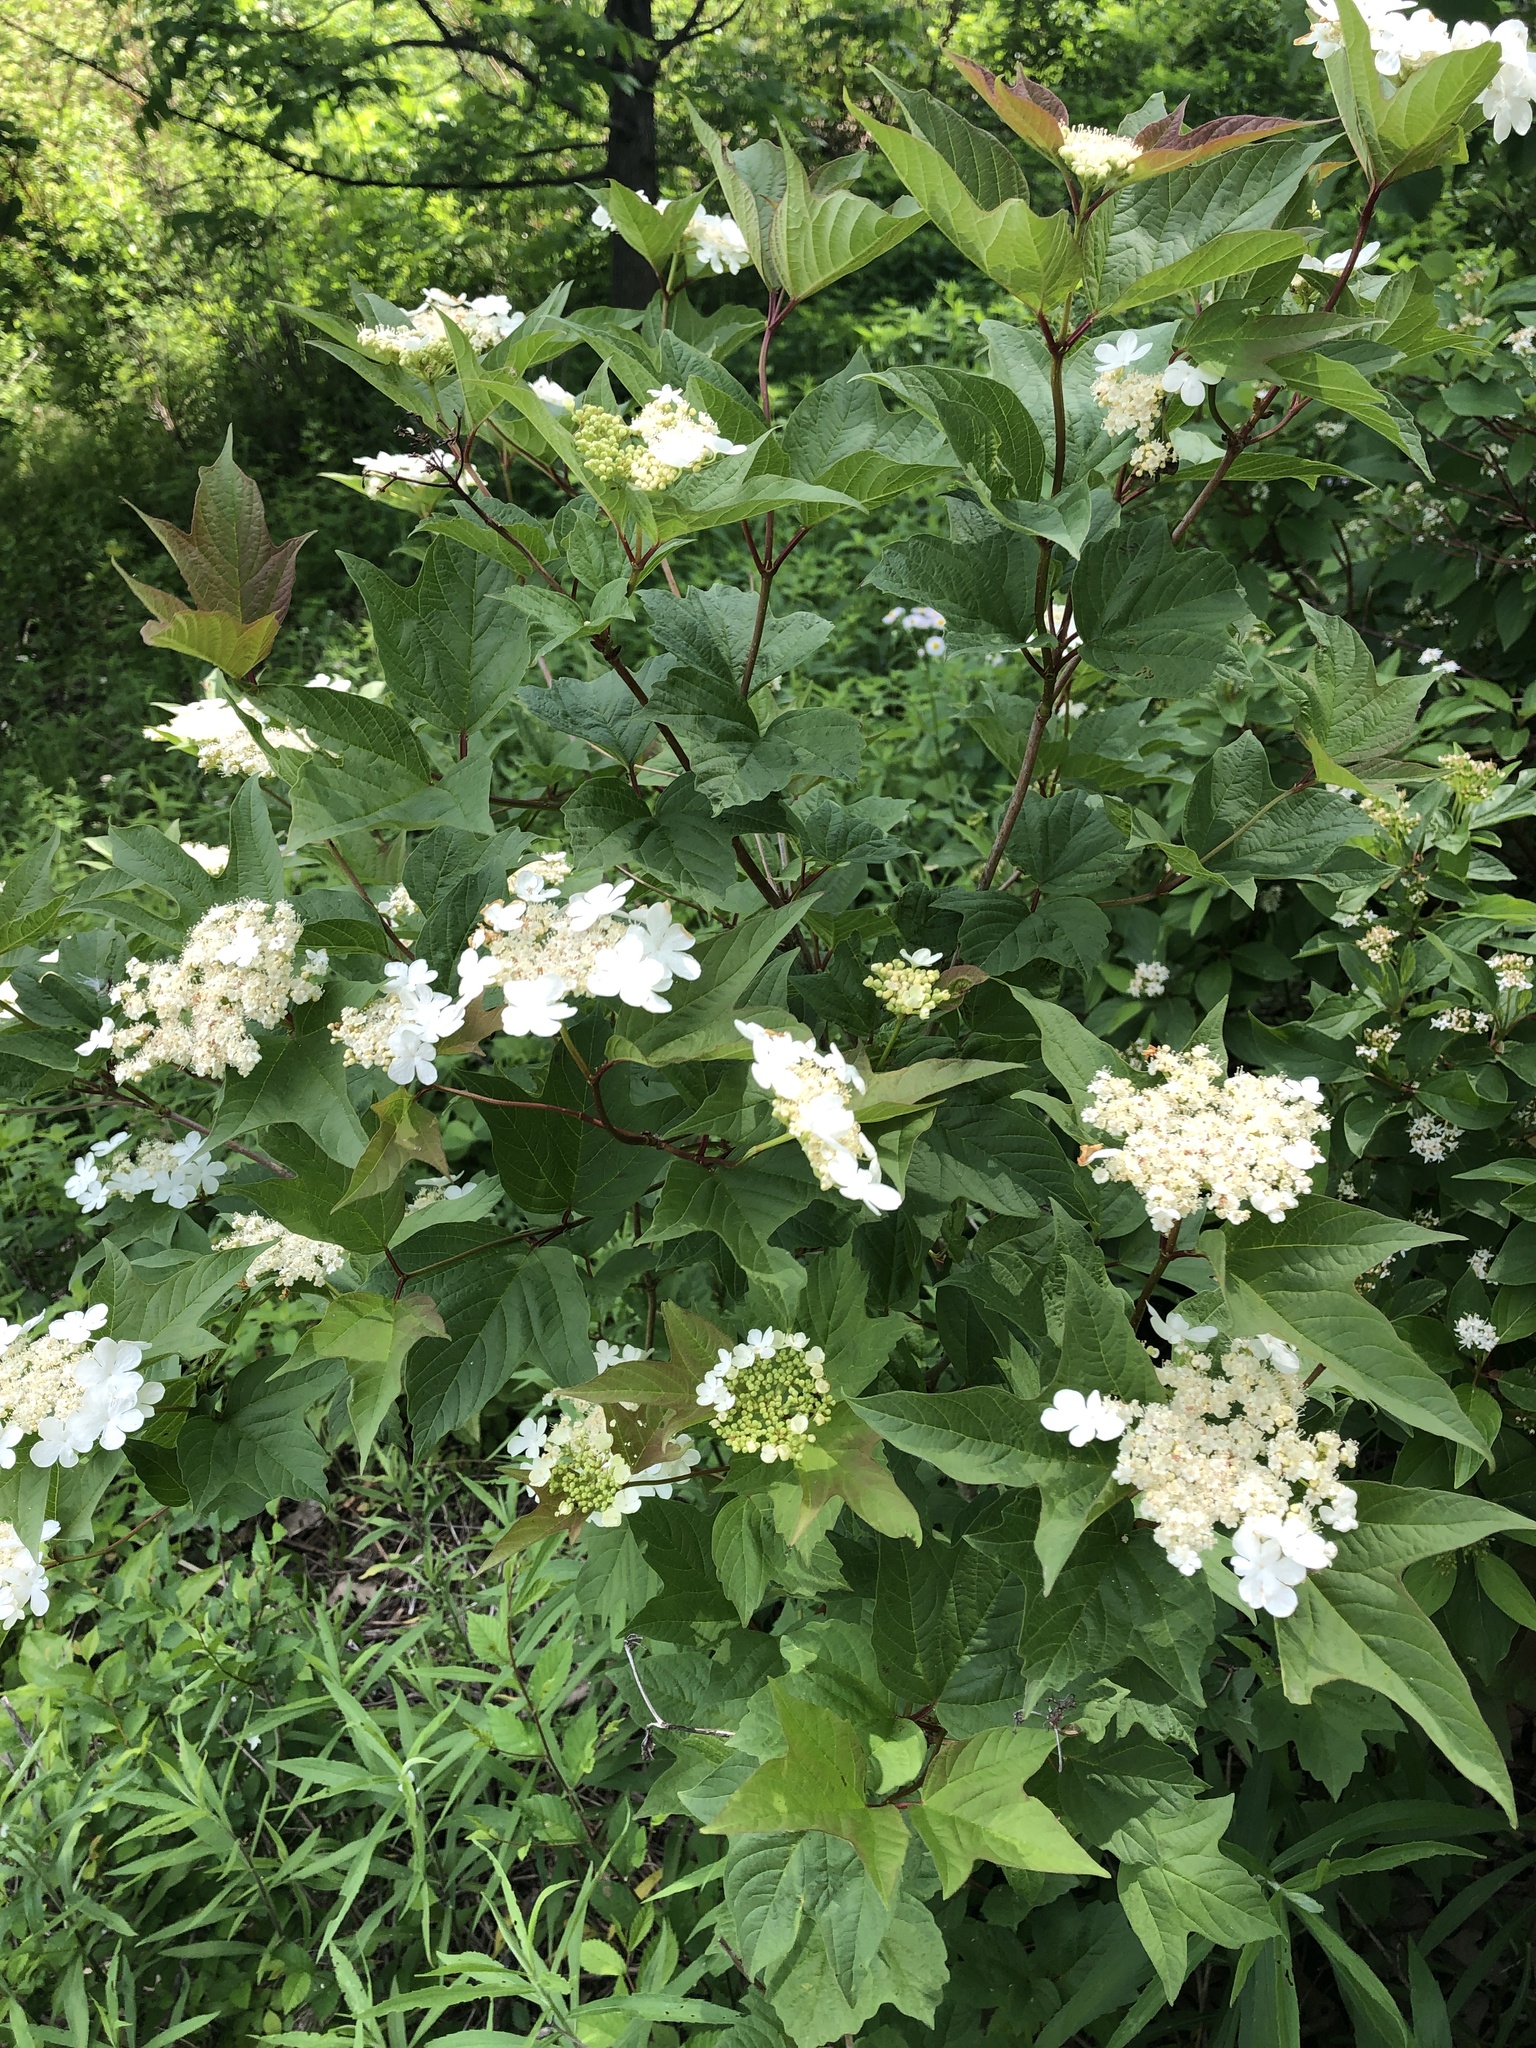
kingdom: Plantae
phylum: Tracheophyta
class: Magnoliopsida
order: Dipsacales
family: Viburnaceae
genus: Viburnum
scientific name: Viburnum opulus
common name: Guelder-rose
